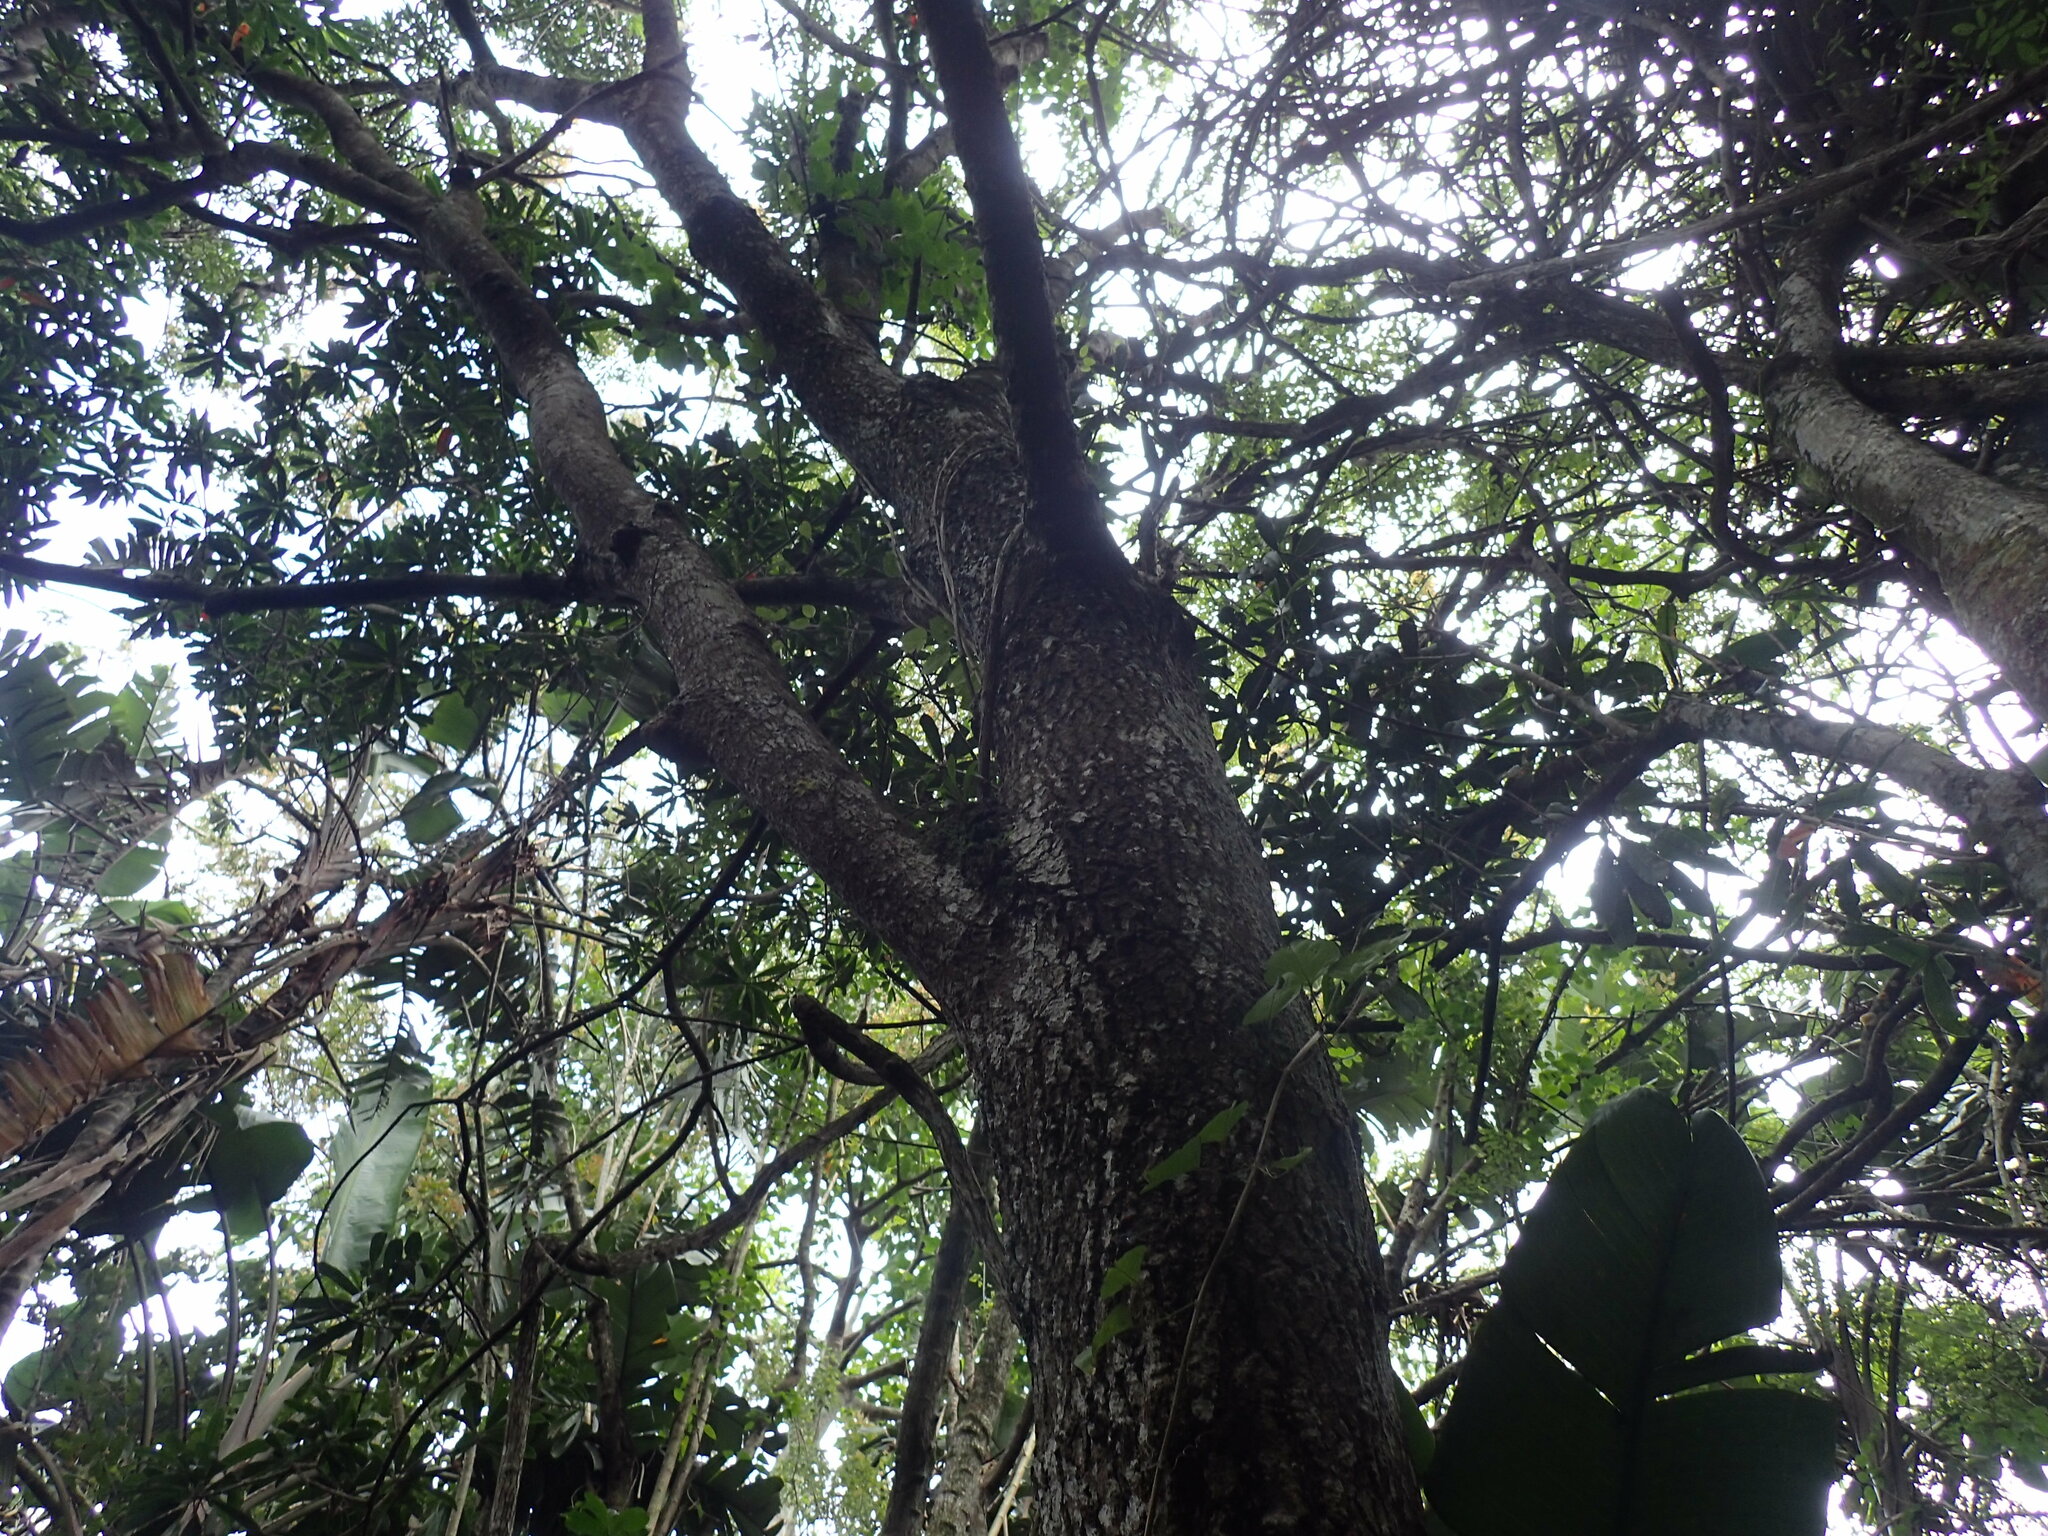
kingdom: Plantae
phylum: Tracheophyta
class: Magnoliopsida
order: Sapindales
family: Anacardiaceae
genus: Protorhus
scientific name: Protorhus longifolia
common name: Red-beech
